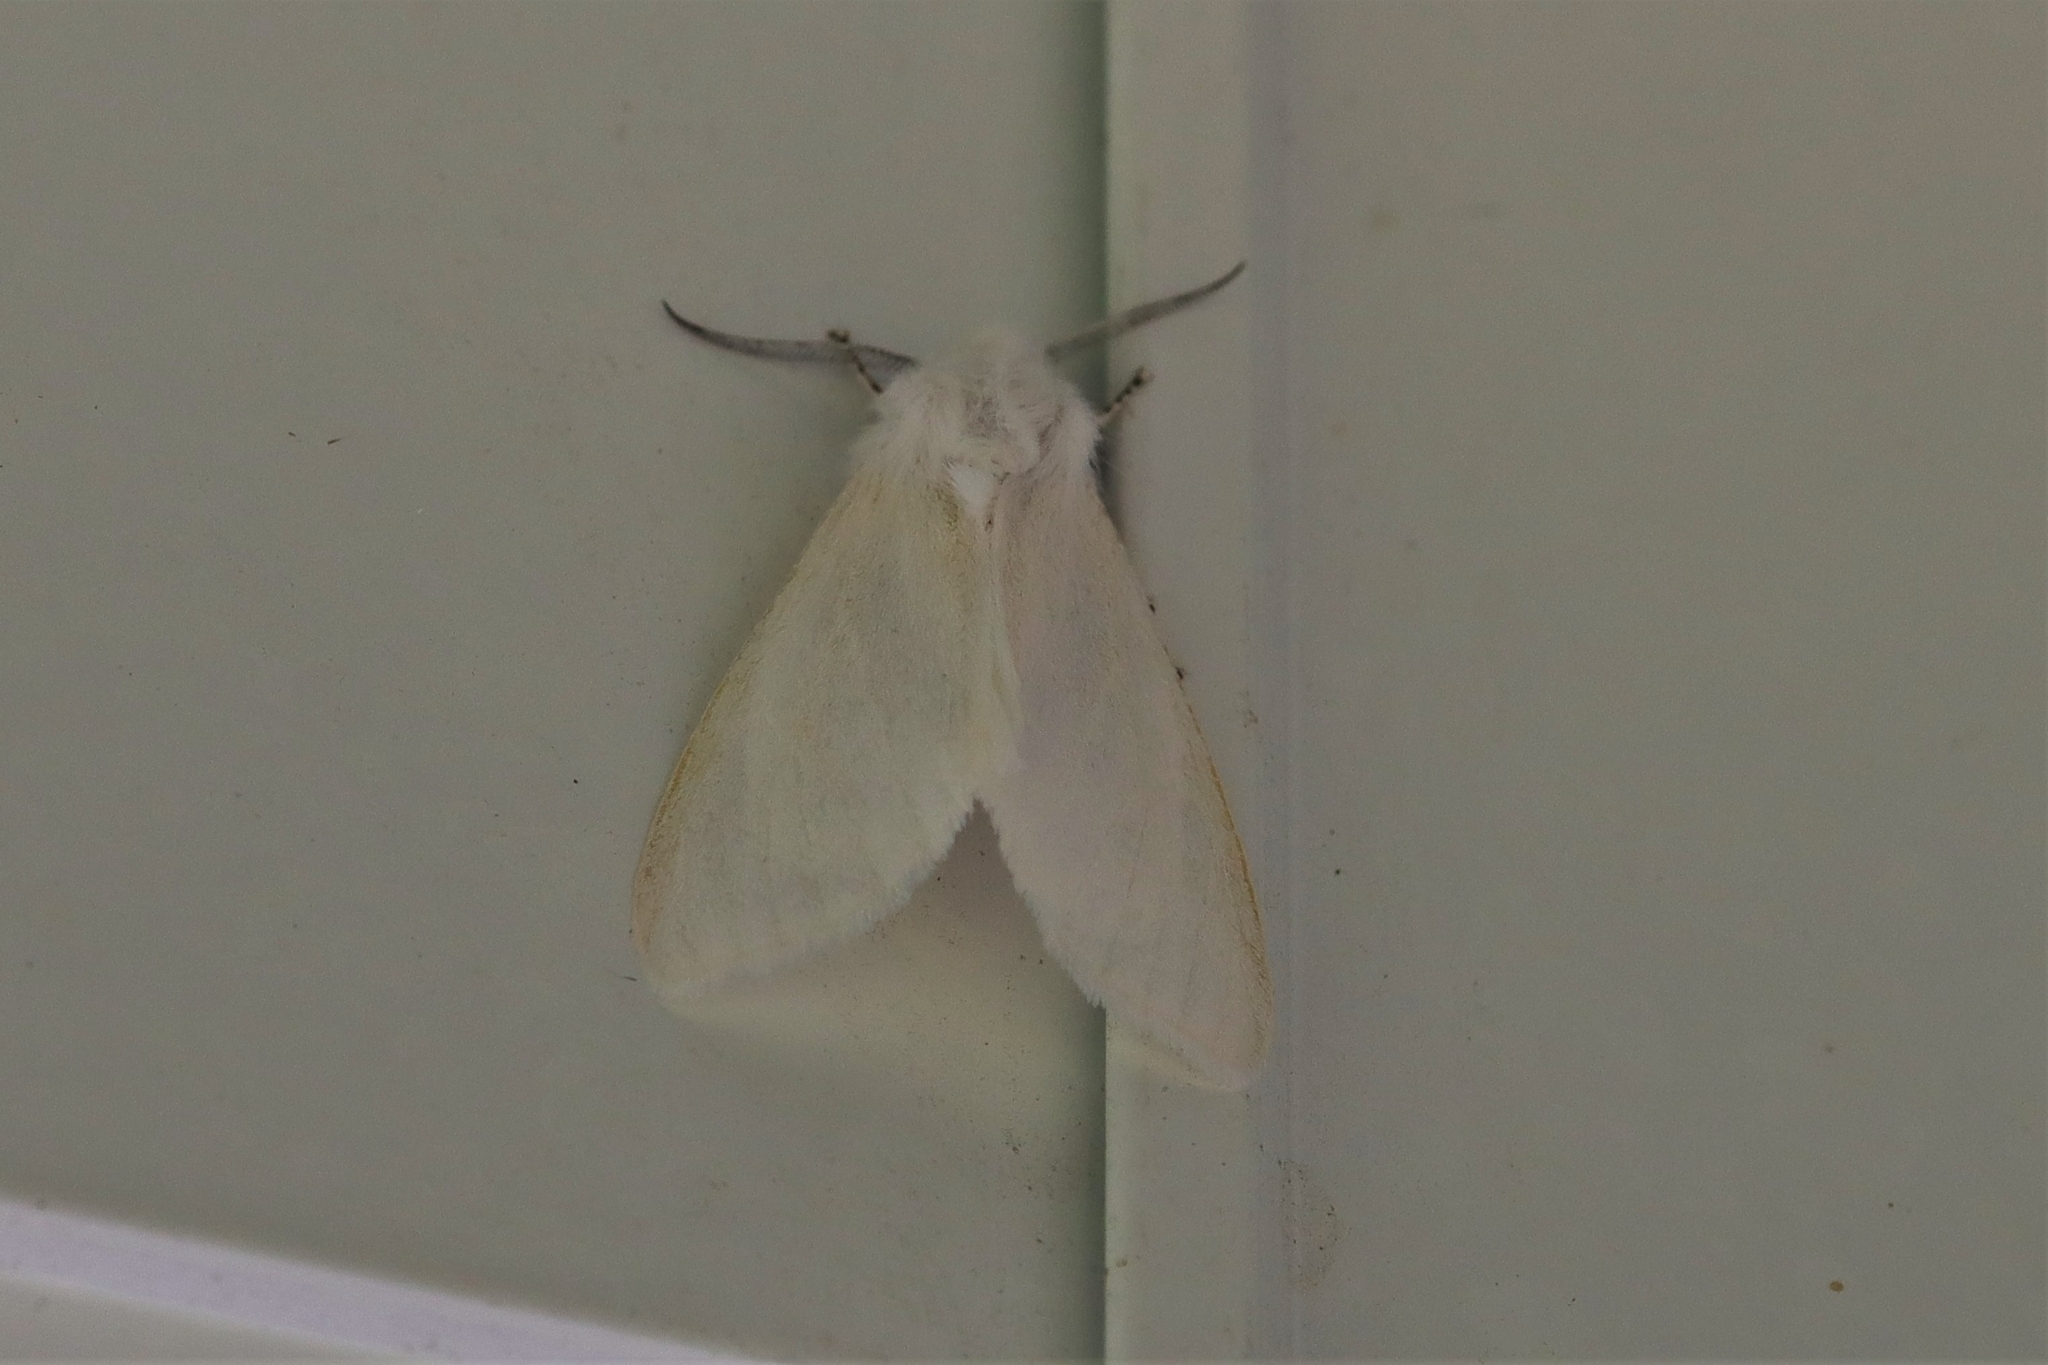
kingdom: Animalia
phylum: Arthropoda
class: Insecta
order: Lepidoptera
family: Erebidae
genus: Leucoma
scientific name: Leucoma salicis
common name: White satin moth
